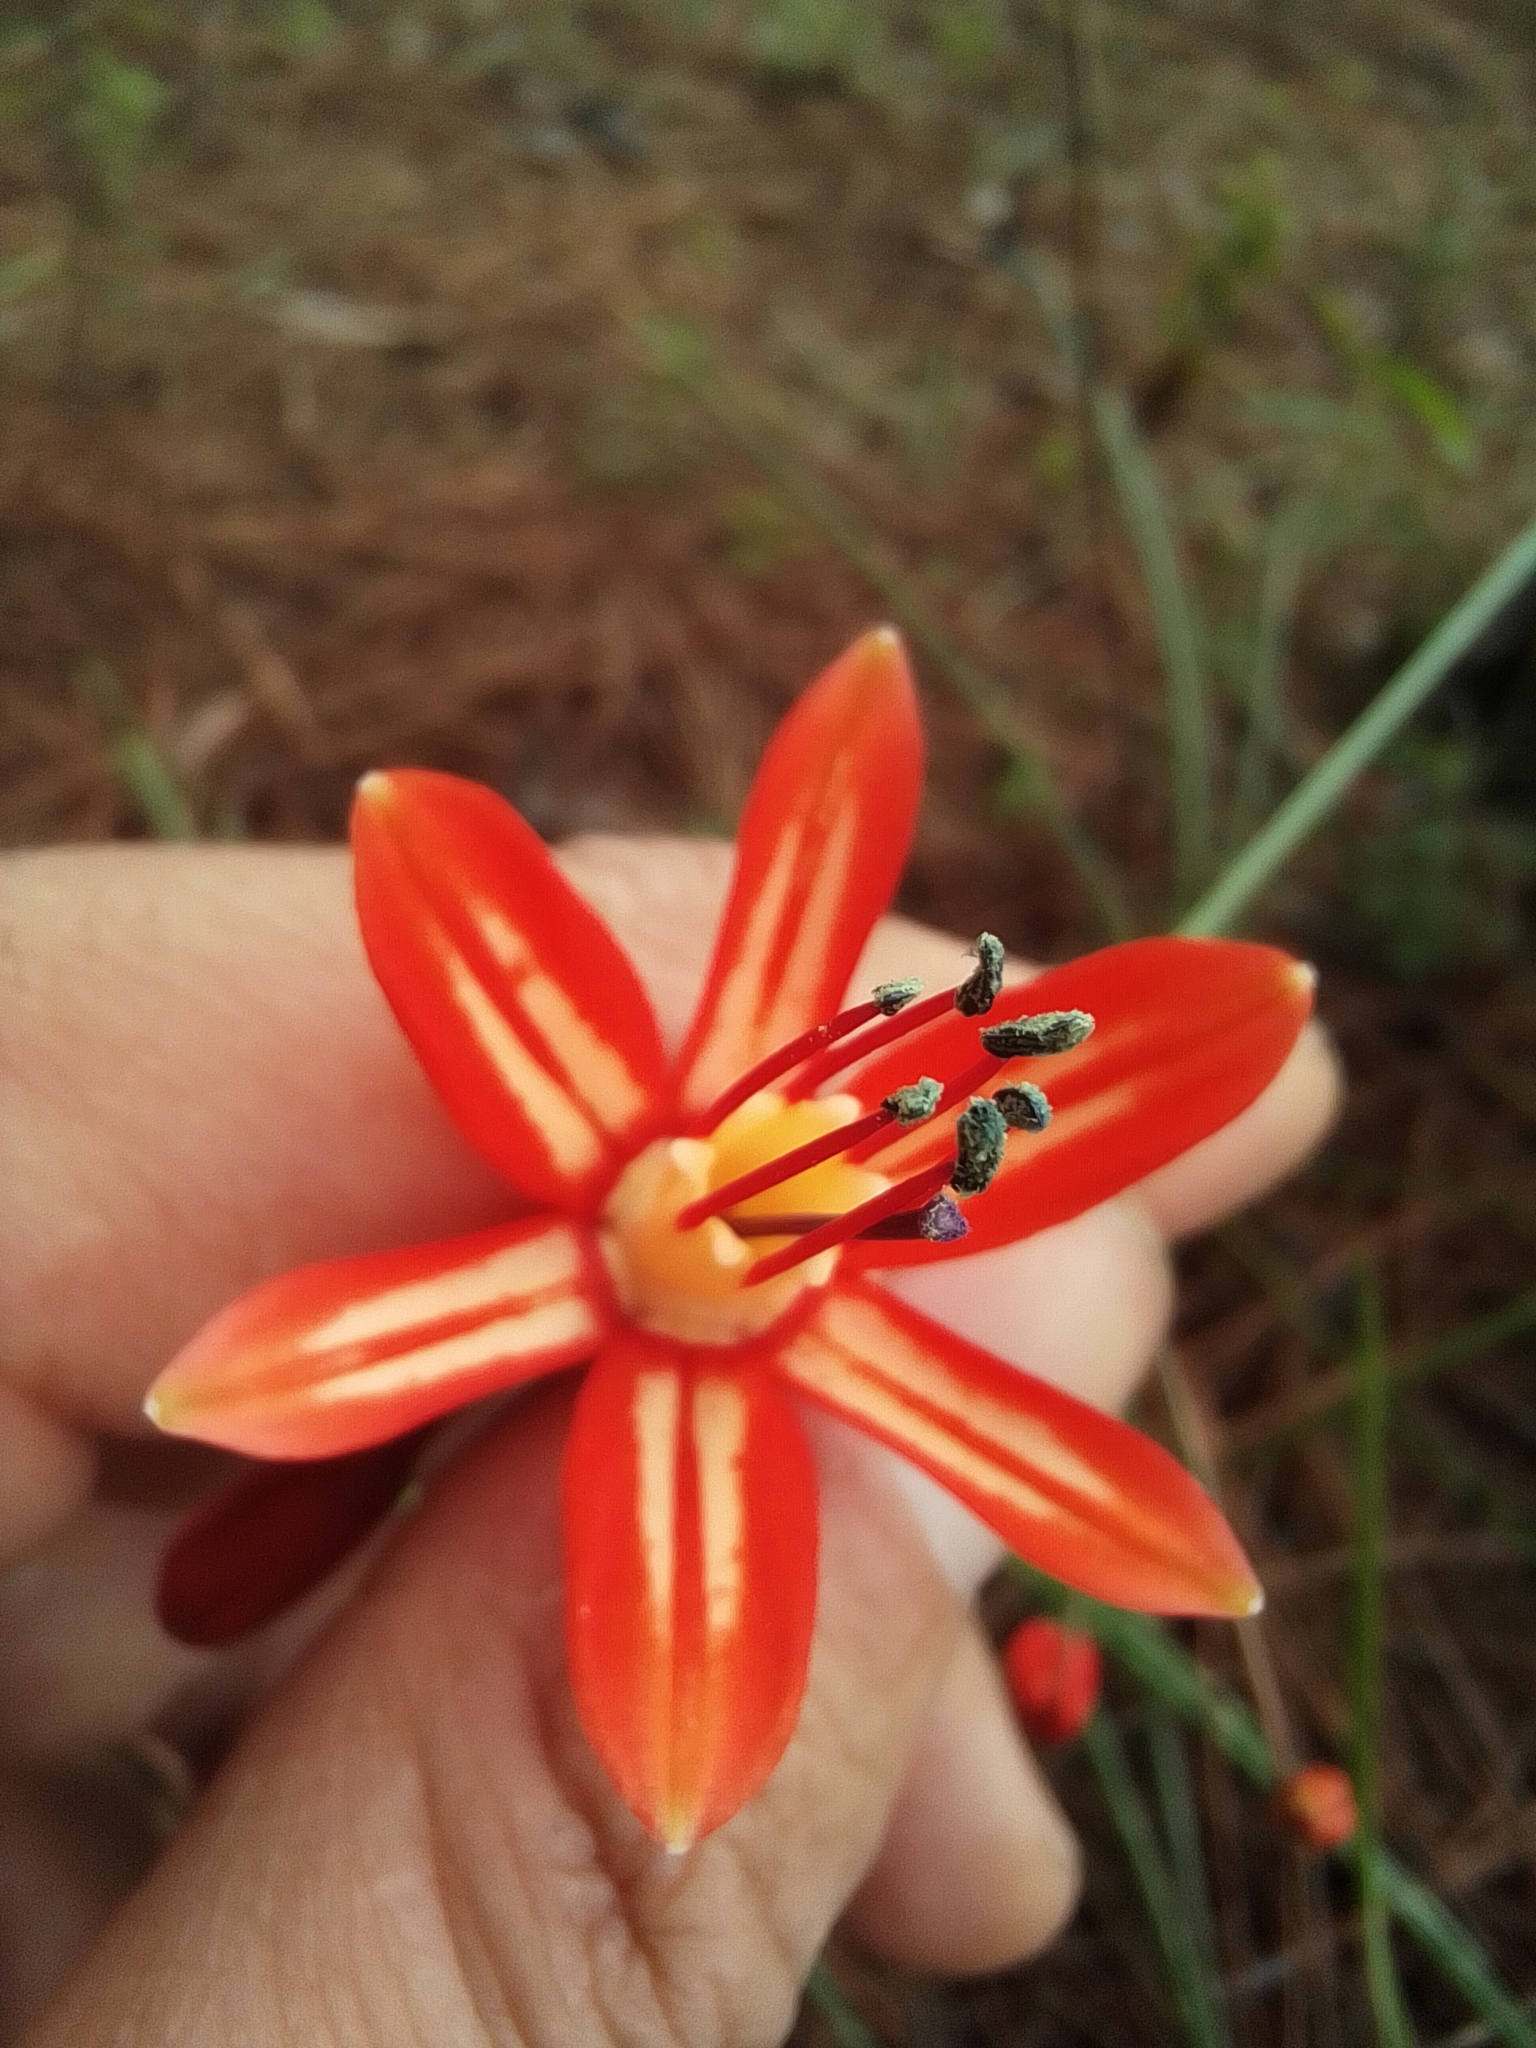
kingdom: Plantae
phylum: Tracheophyta
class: Liliopsida
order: Asparagales
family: Asparagaceae
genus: Bessera
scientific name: Bessera elegans
